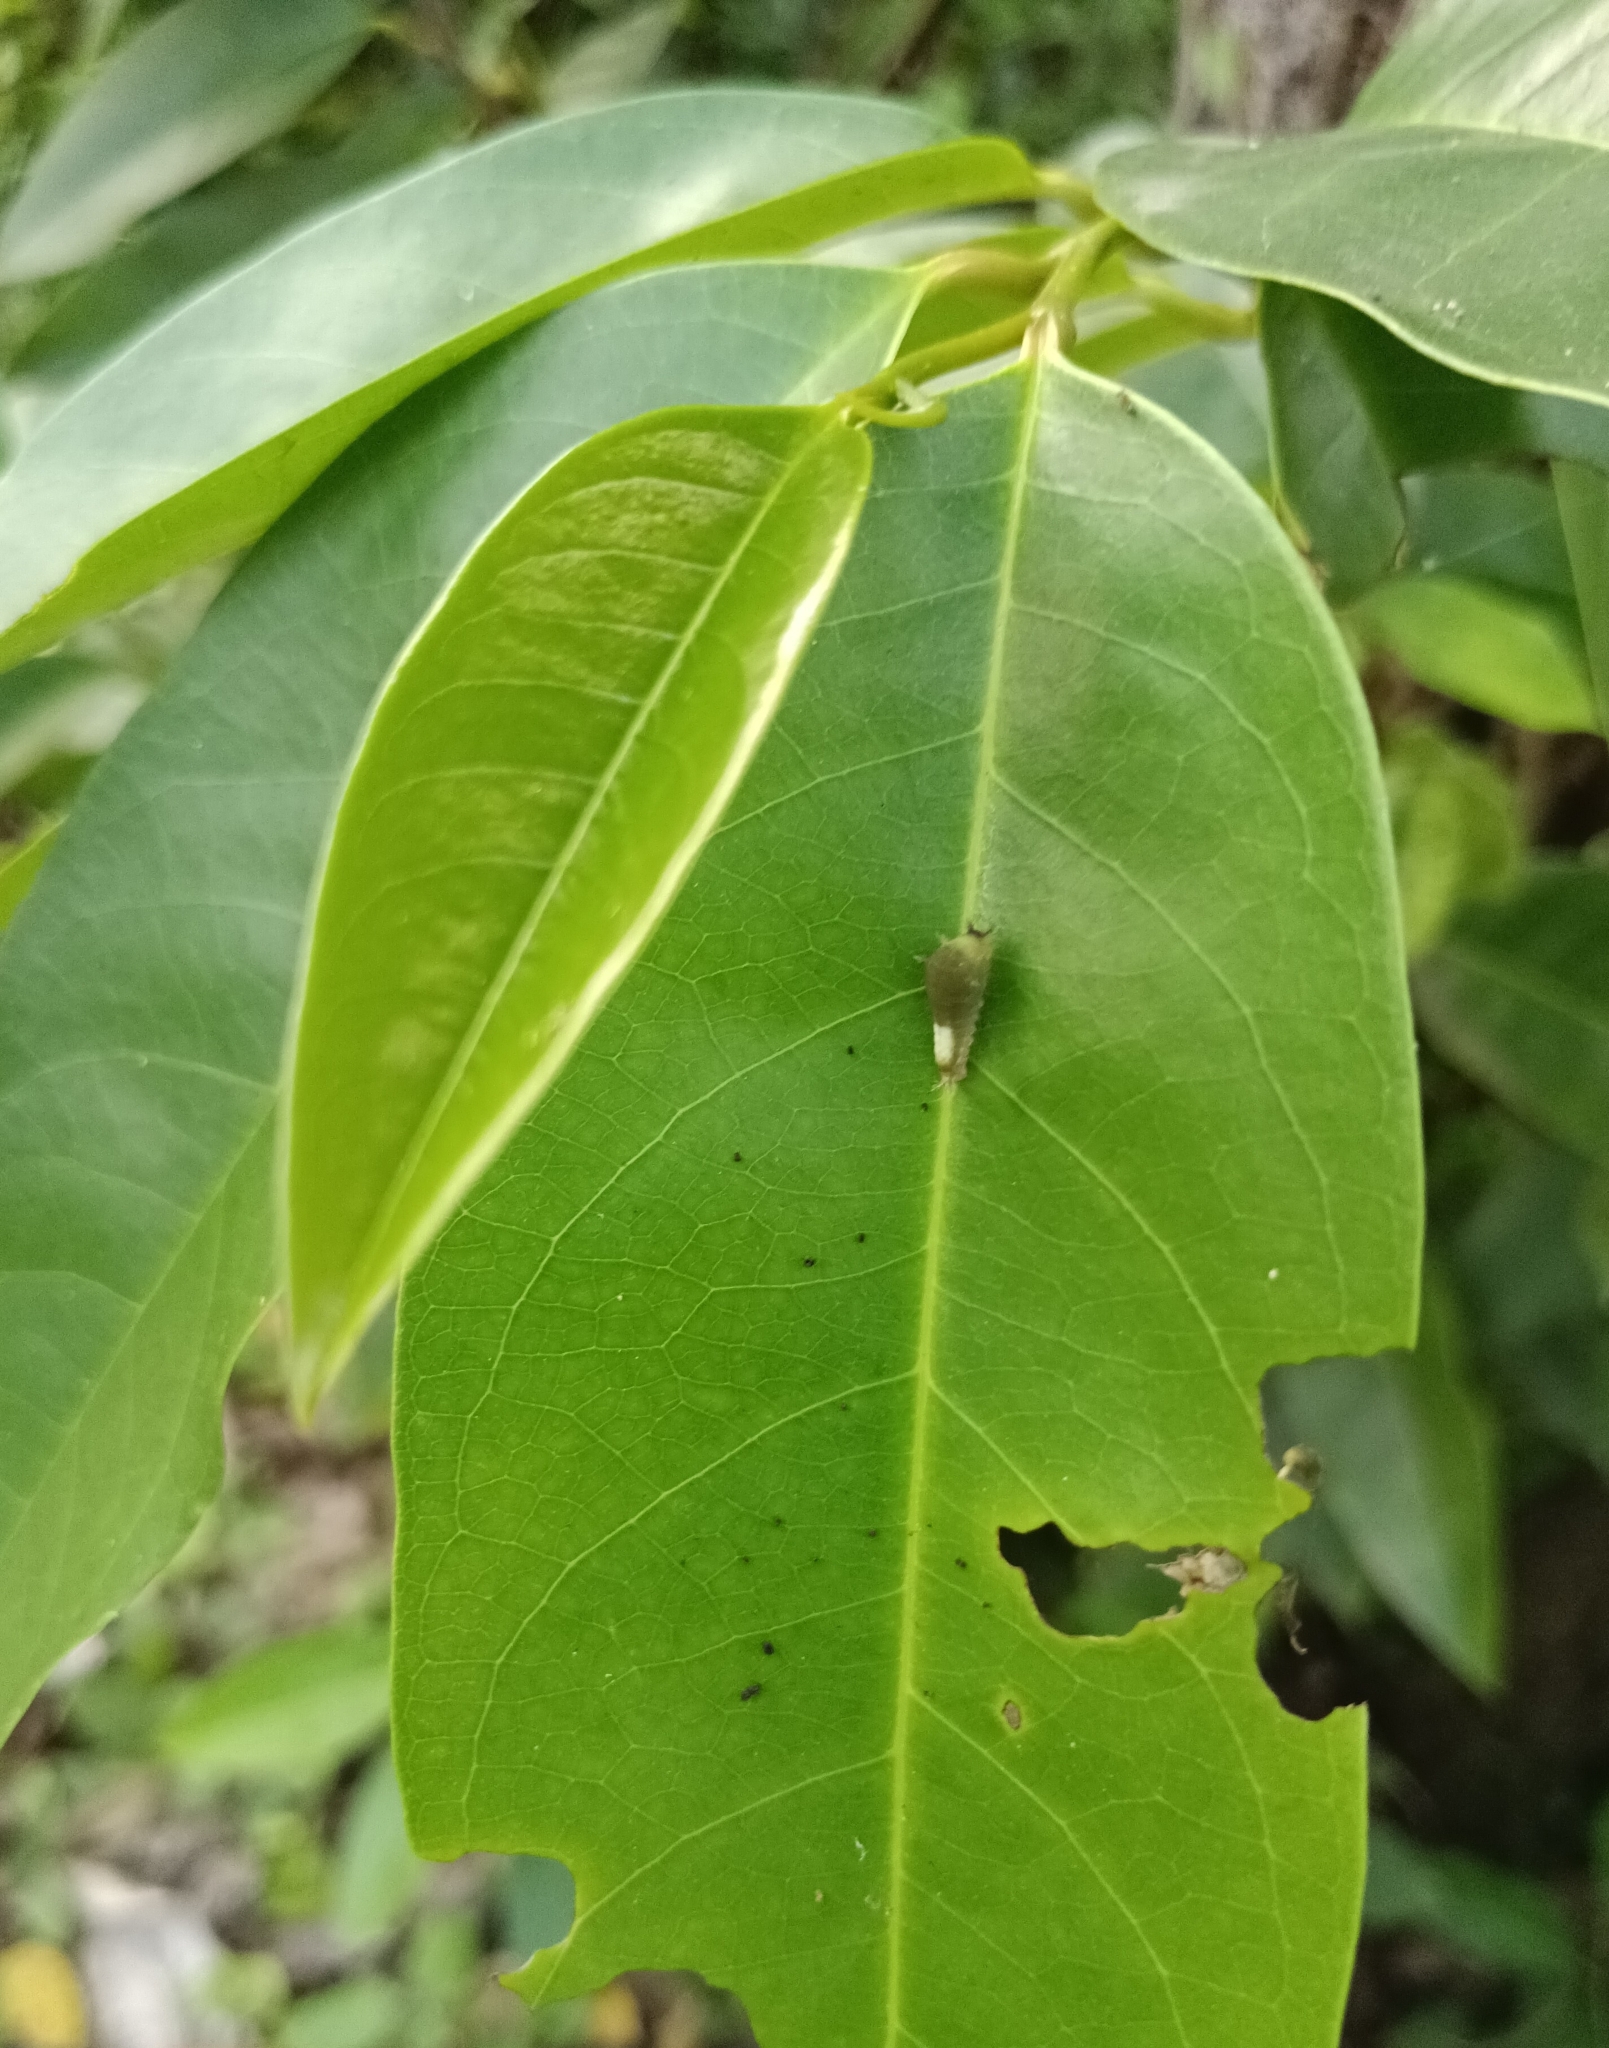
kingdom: Animalia
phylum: Arthropoda
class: Insecta
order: Lepidoptera
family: Papilionidae
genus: Graphium
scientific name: Graphium agamemnon
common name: Tailed jay
